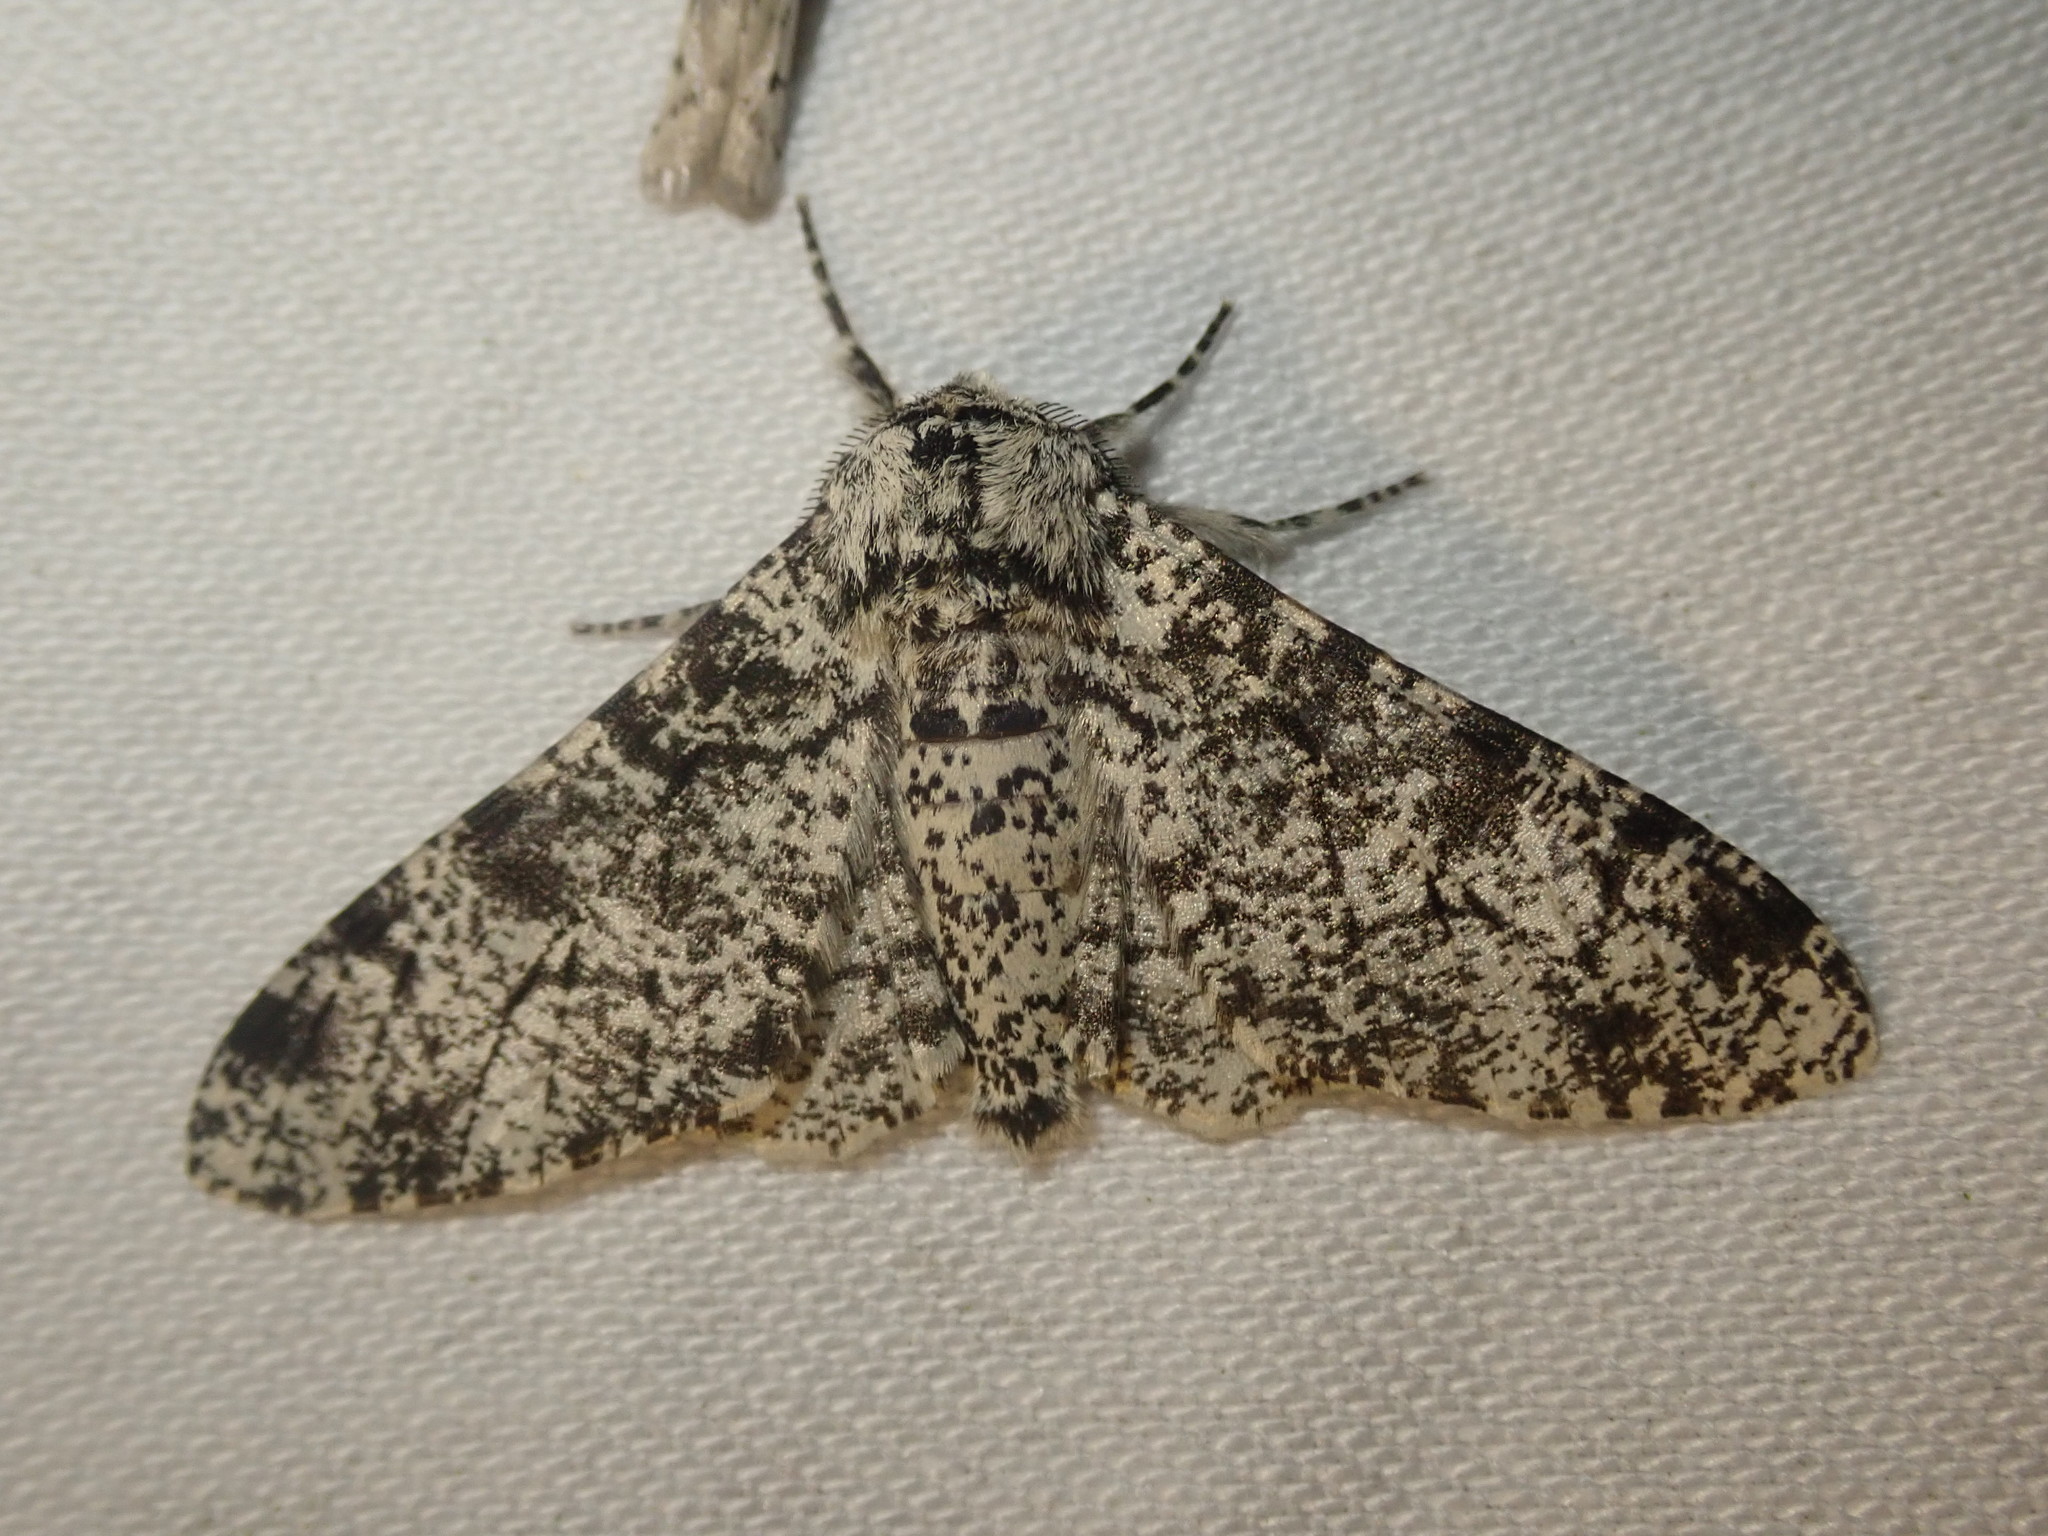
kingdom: Animalia
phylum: Arthropoda
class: Insecta
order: Lepidoptera
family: Geometridae
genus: Biston
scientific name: Biston betularia
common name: Peppered moth
